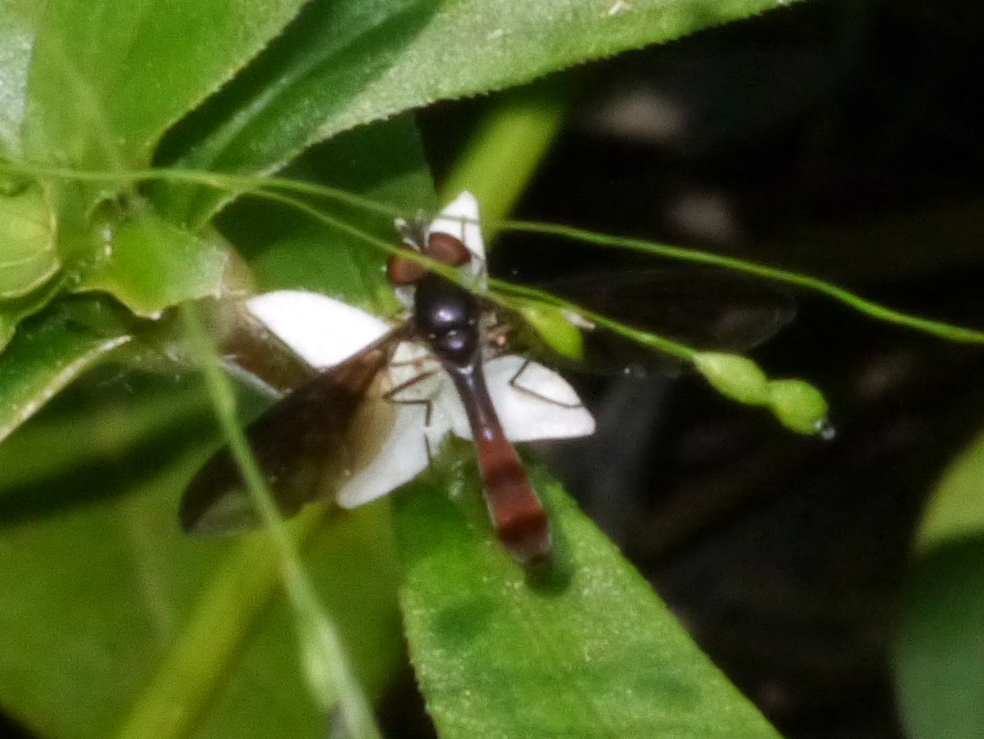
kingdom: Animalia
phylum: Arthropoda
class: Insecta
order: Diptera
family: Syrphidae
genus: Ocyptamus
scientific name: Ocyptamus fuscipennis
